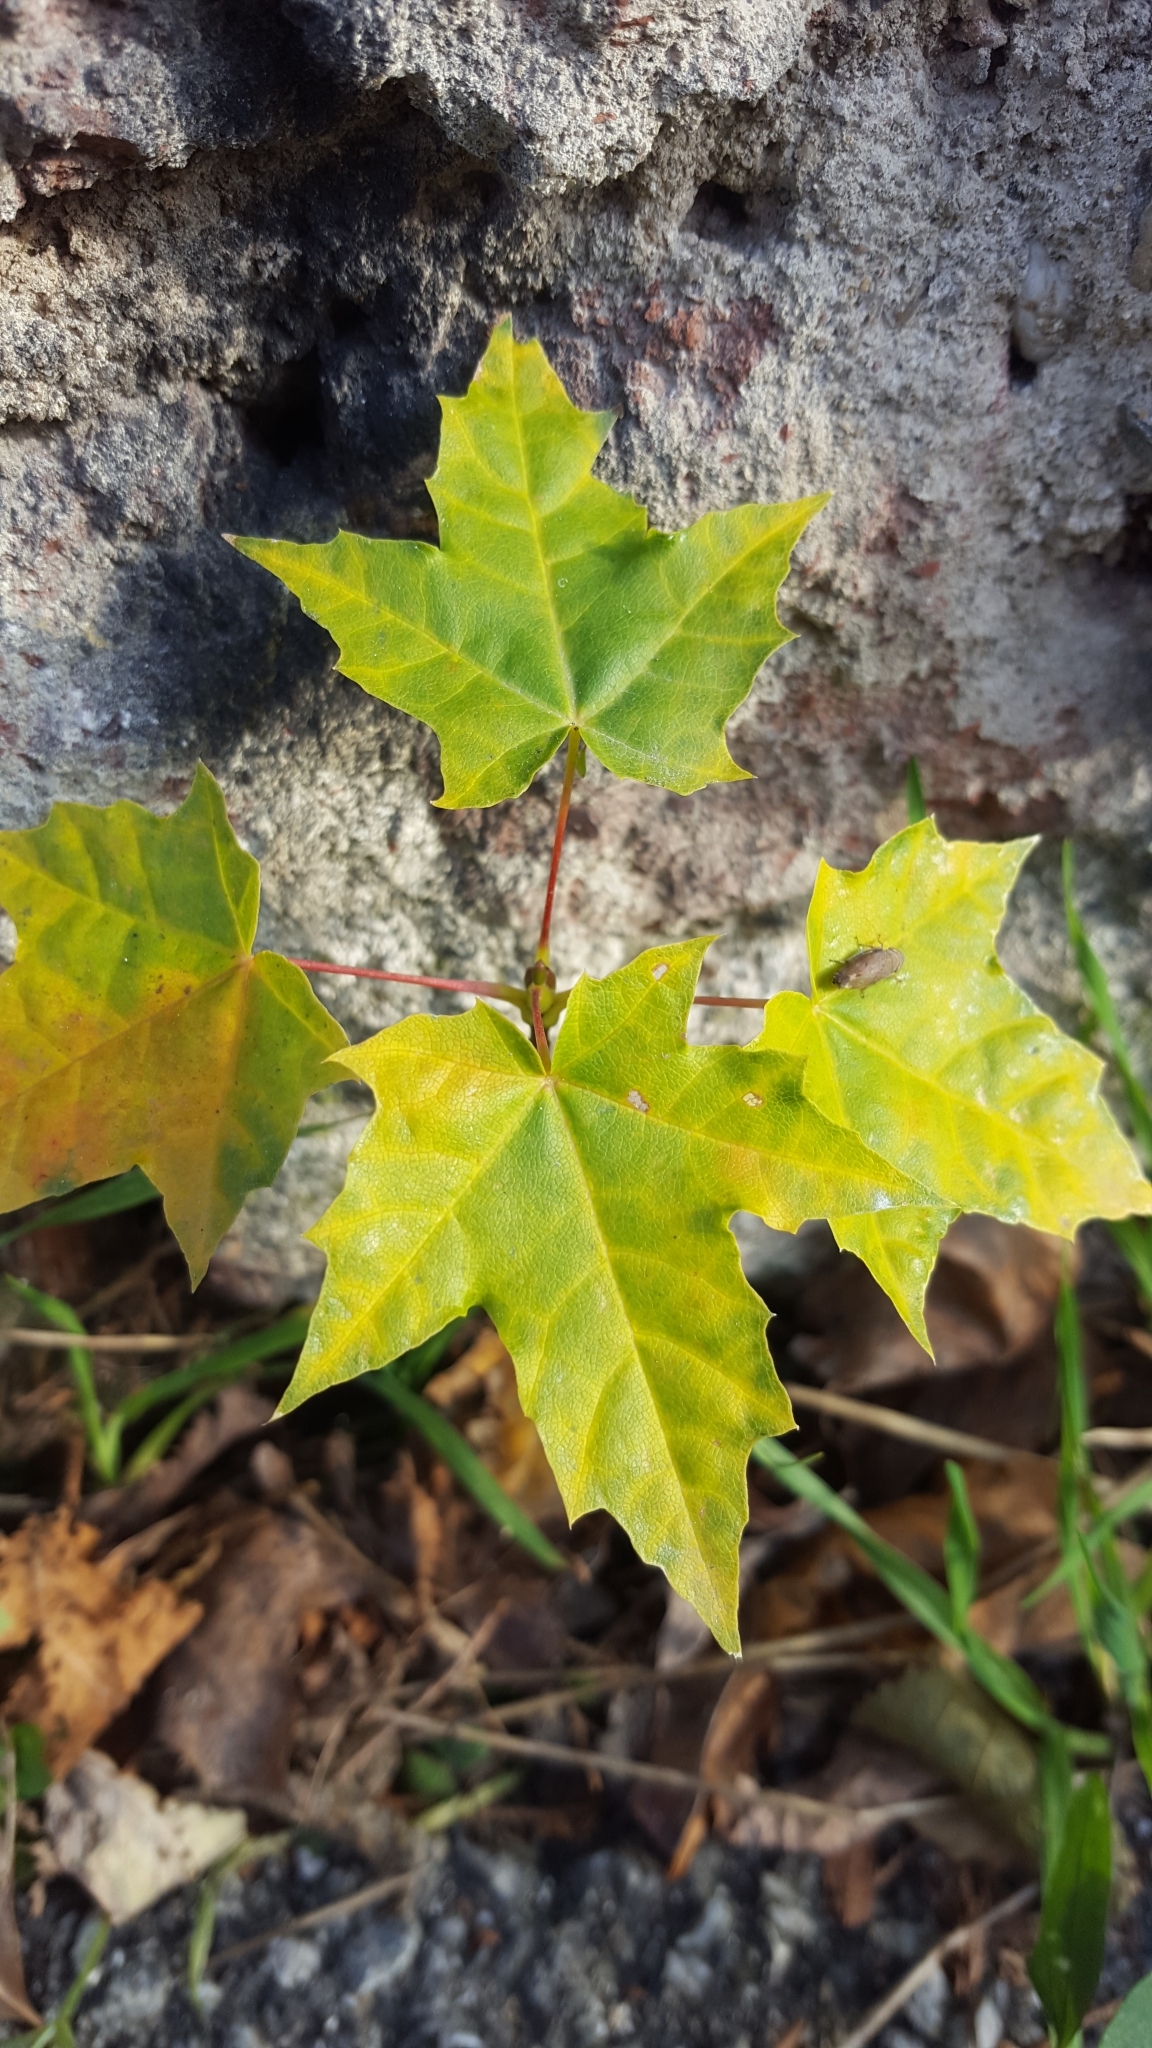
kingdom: Plantae
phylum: Tracheophyta
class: Magnoliopsida
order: Sapindales
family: Sapindaceae
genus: Acer
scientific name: Acer platanoides
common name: Norway maple
